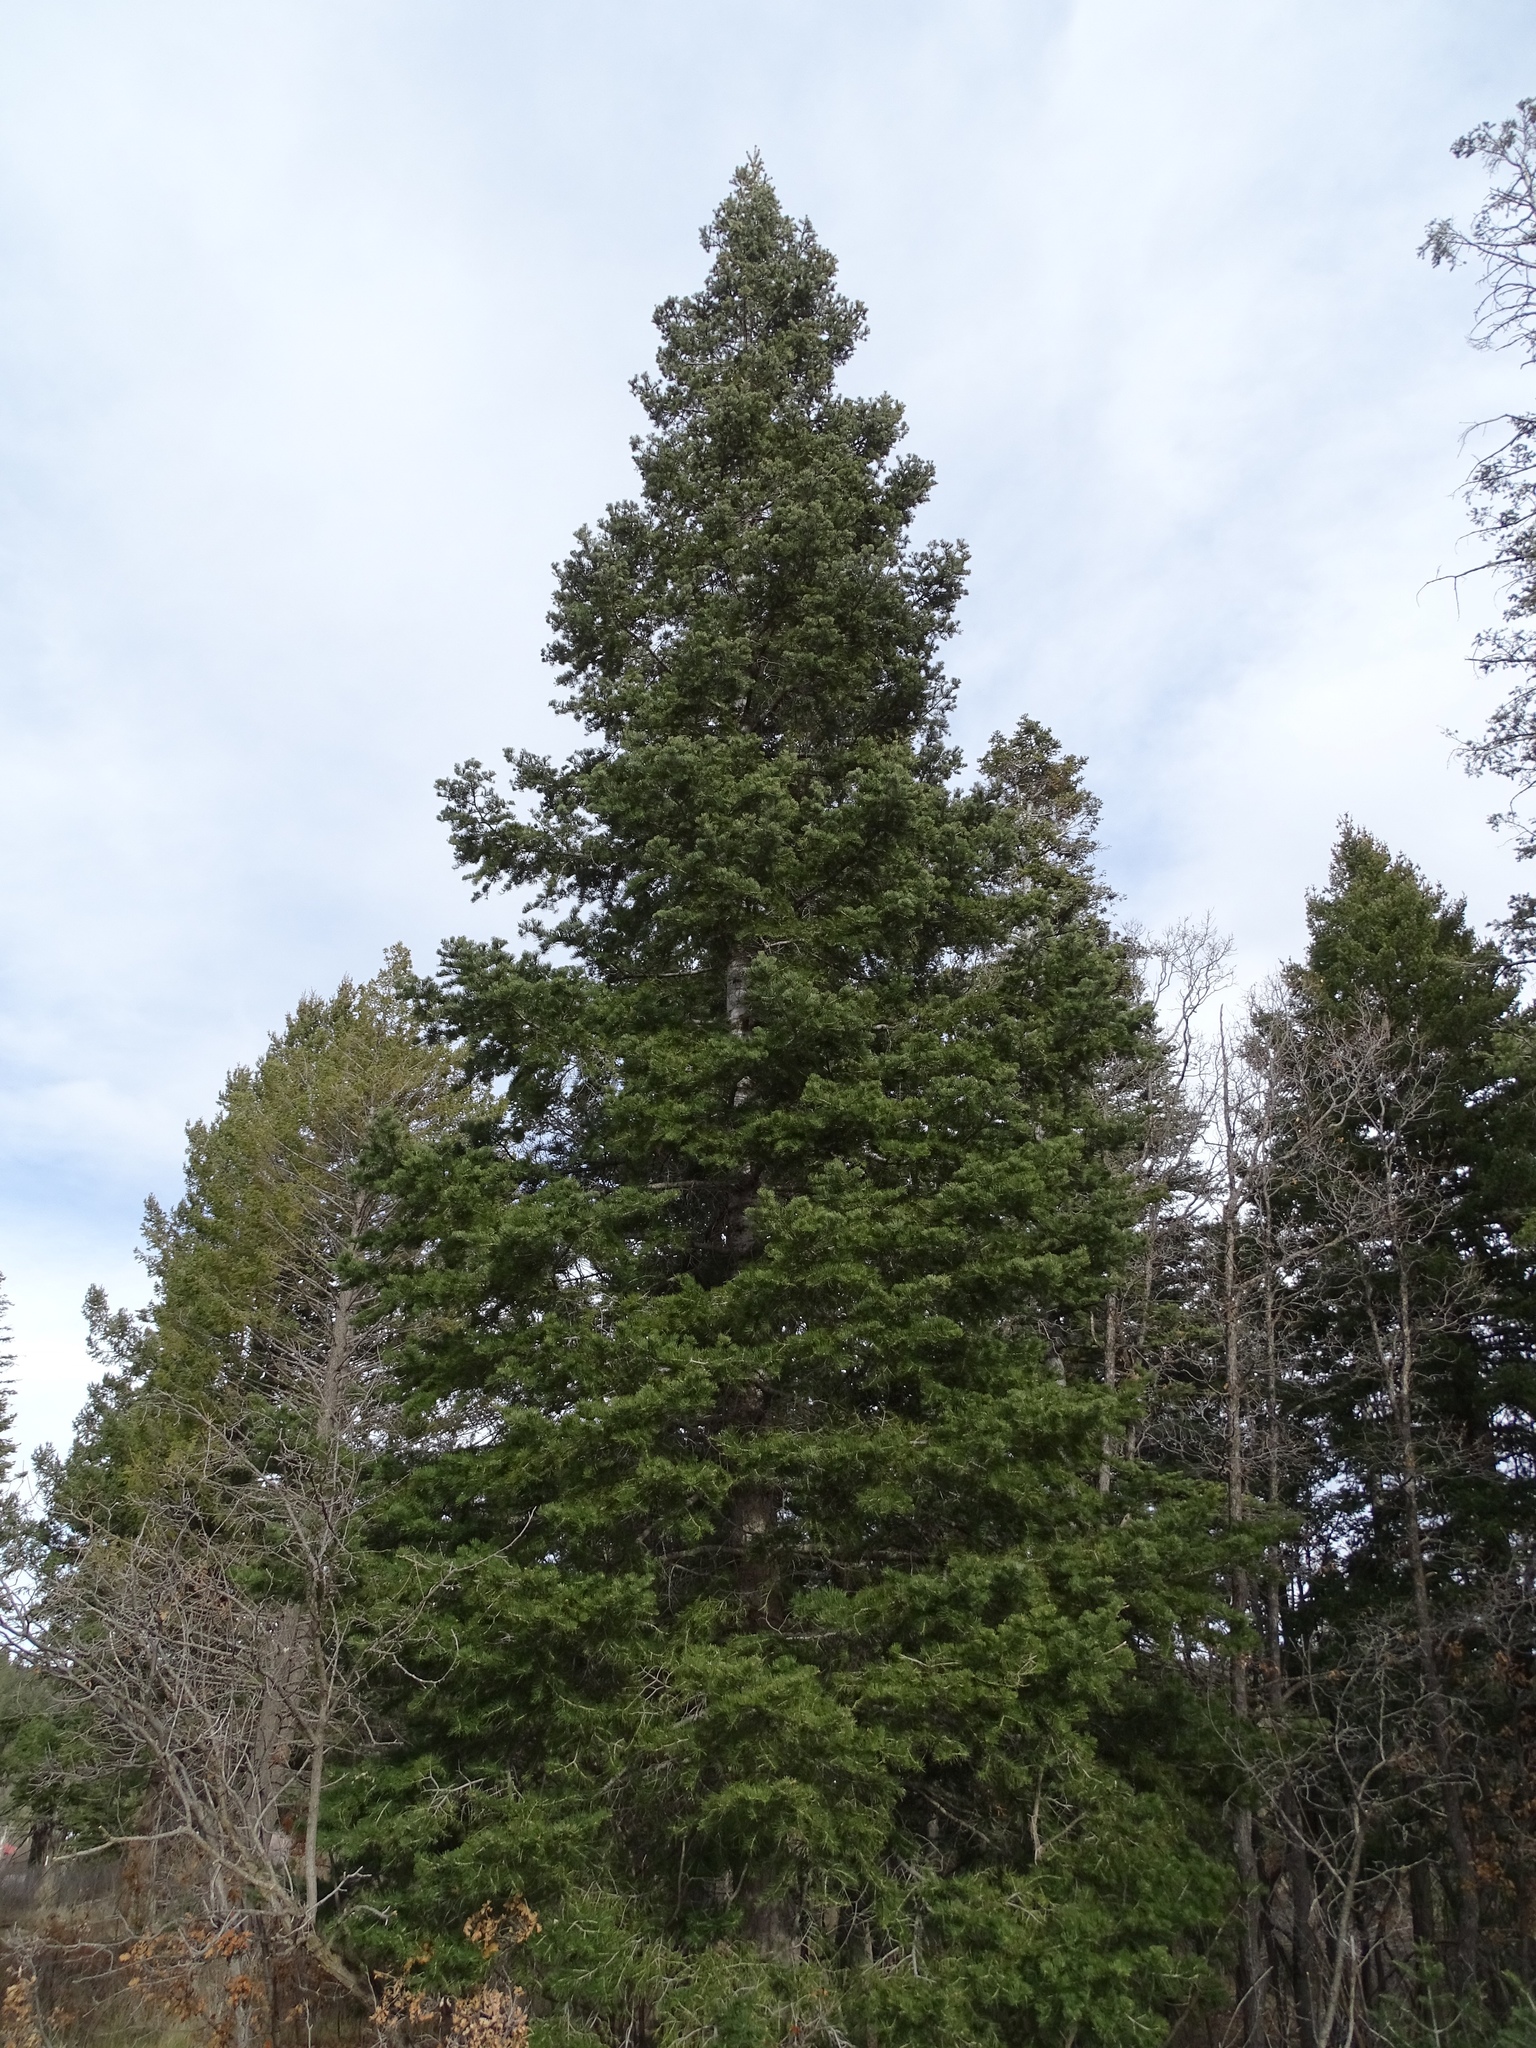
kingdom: Plantae
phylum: Tracheophyta
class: Pinopsida
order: Pinales
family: Pinaceae
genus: Abies
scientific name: Abies concolor
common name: Colorado fir
